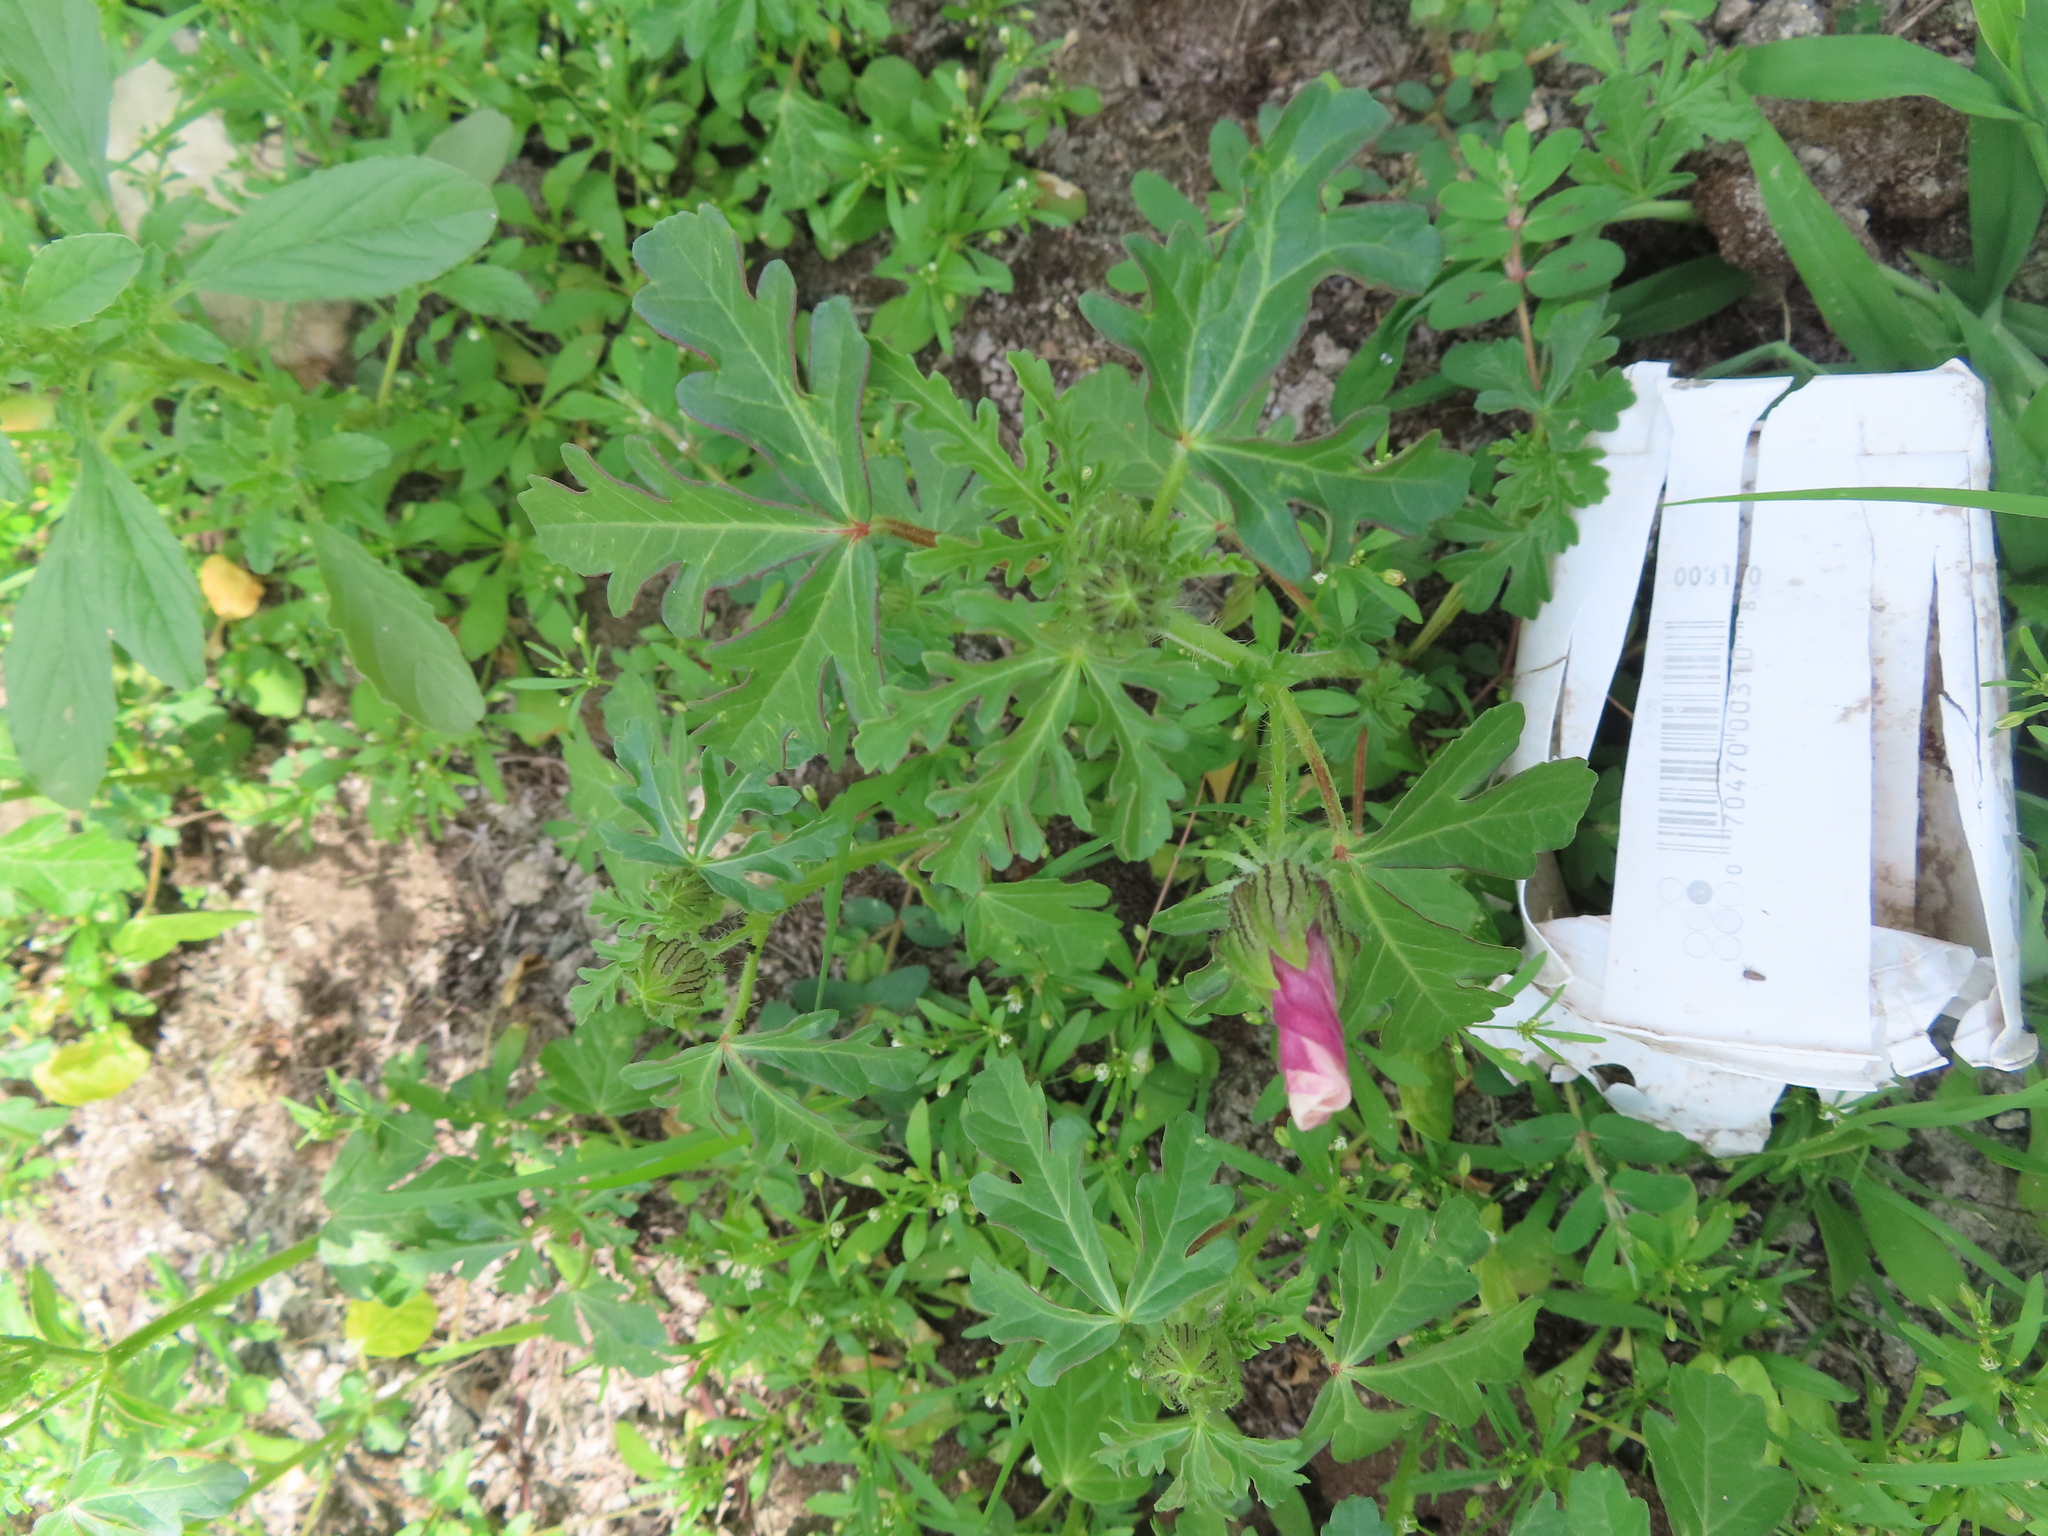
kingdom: Plantae
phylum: Tracheophyta
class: Magnoliopsida
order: Malvales
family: Malvaceae
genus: Hibiscus
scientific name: Hibiscus trionum
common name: Bladder ketmia
